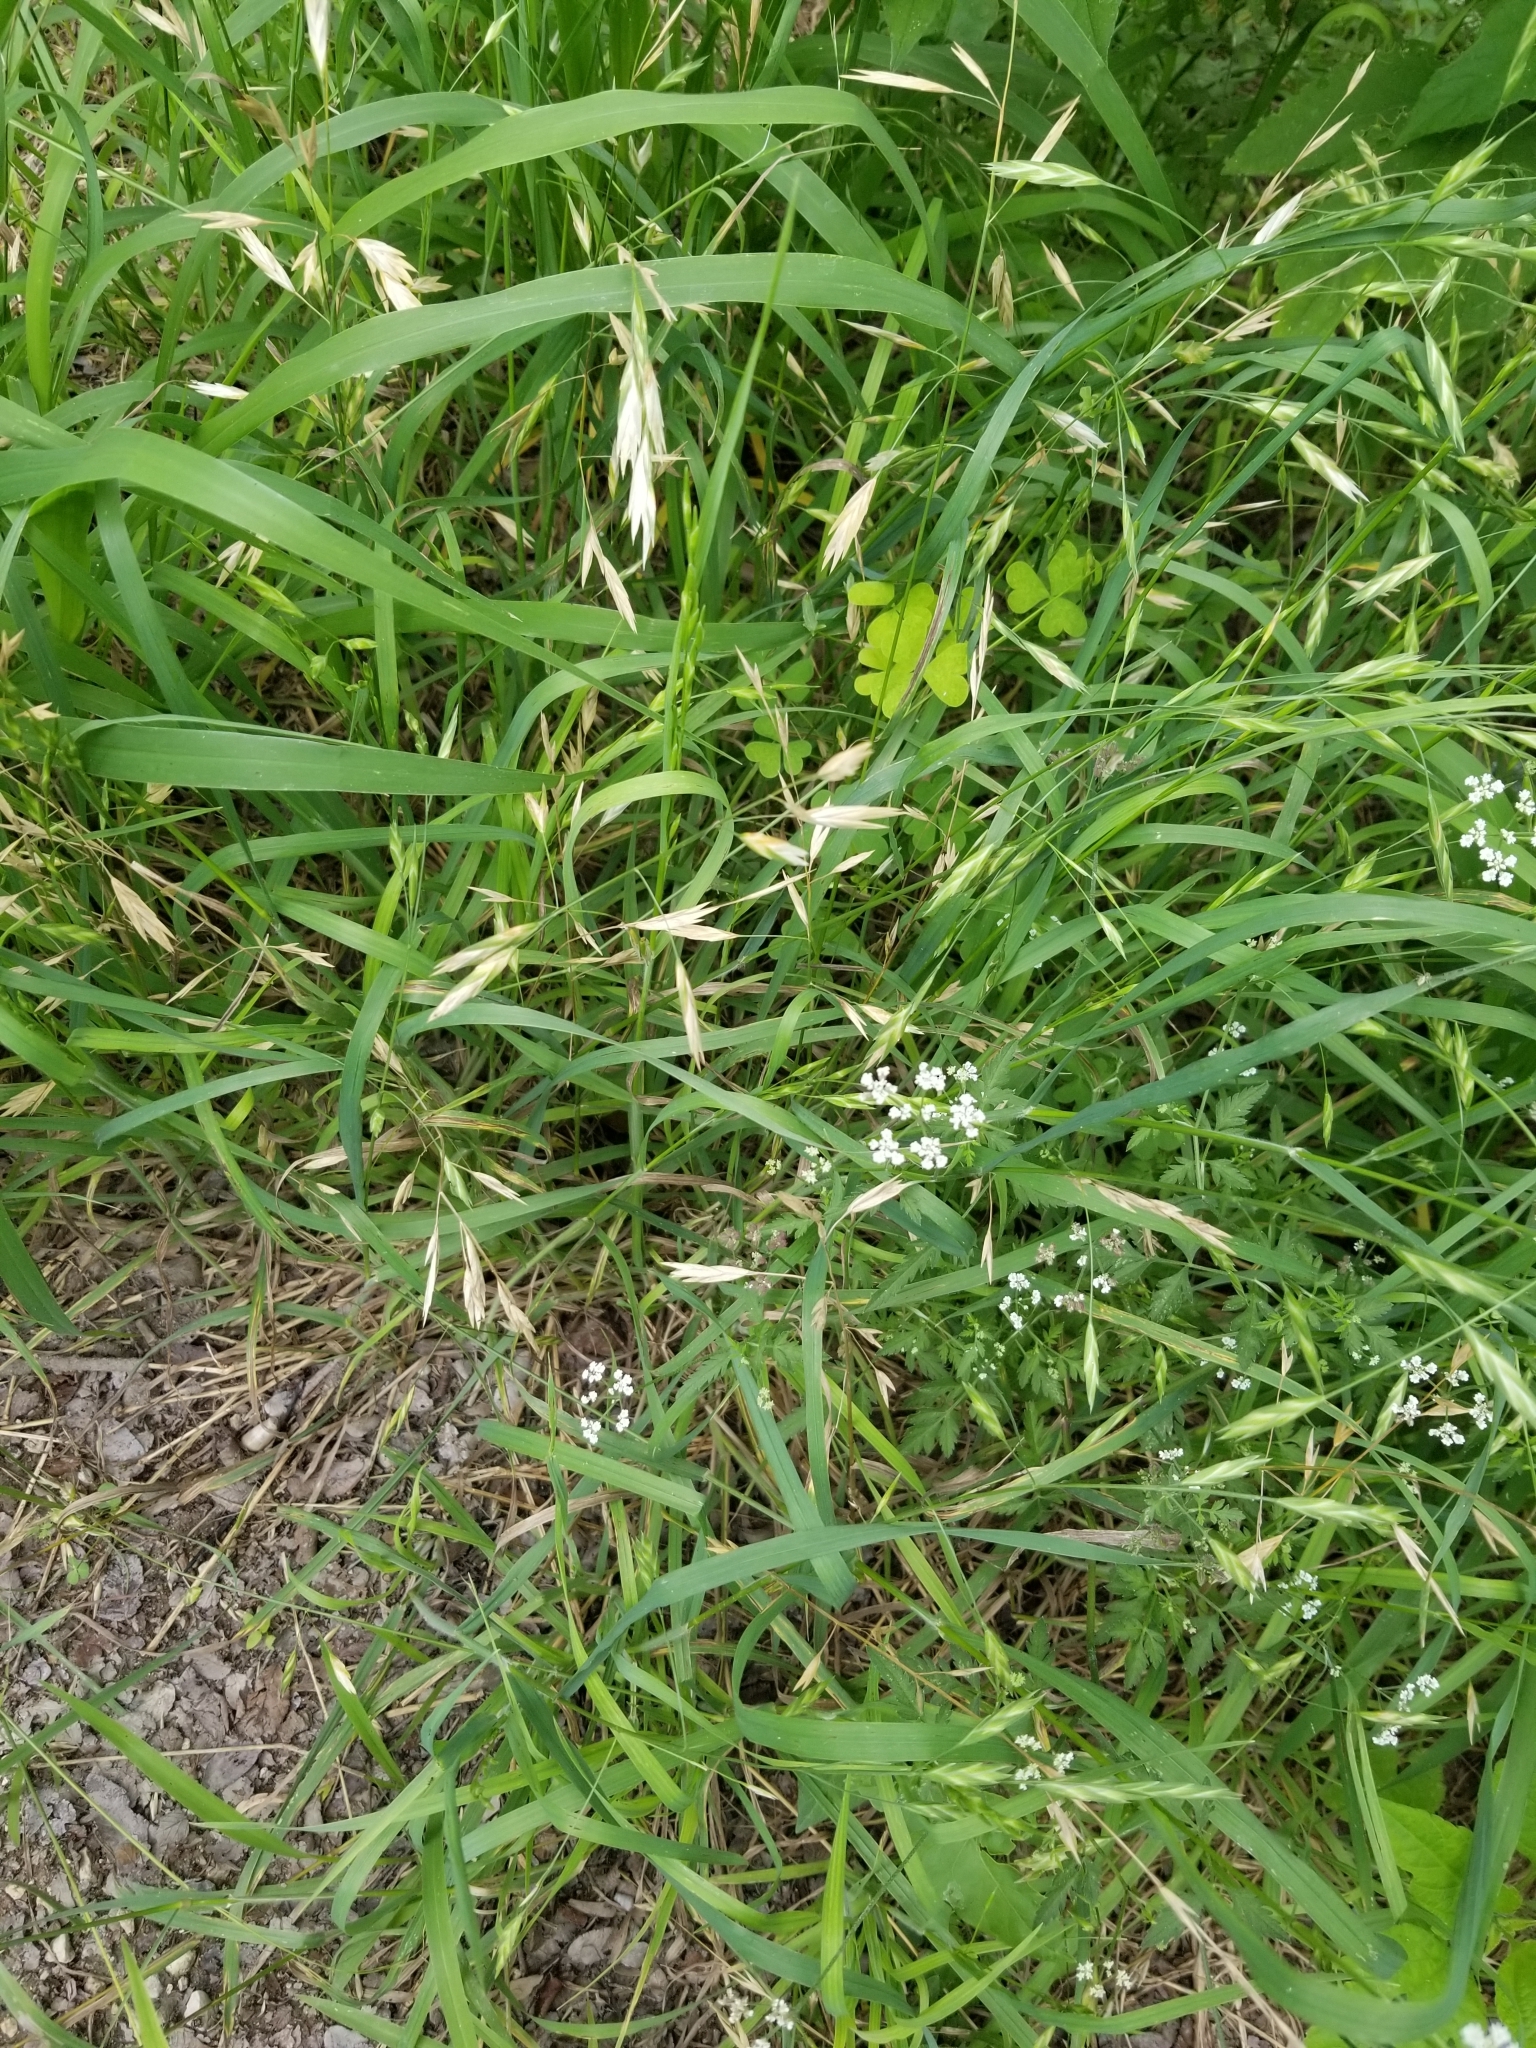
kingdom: Plantae
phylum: Tracheophyta
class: Magnoliopsida
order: Asterales
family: Asteraceae
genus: Gaillardia
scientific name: Gaillardia pulchella
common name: Firewheel
